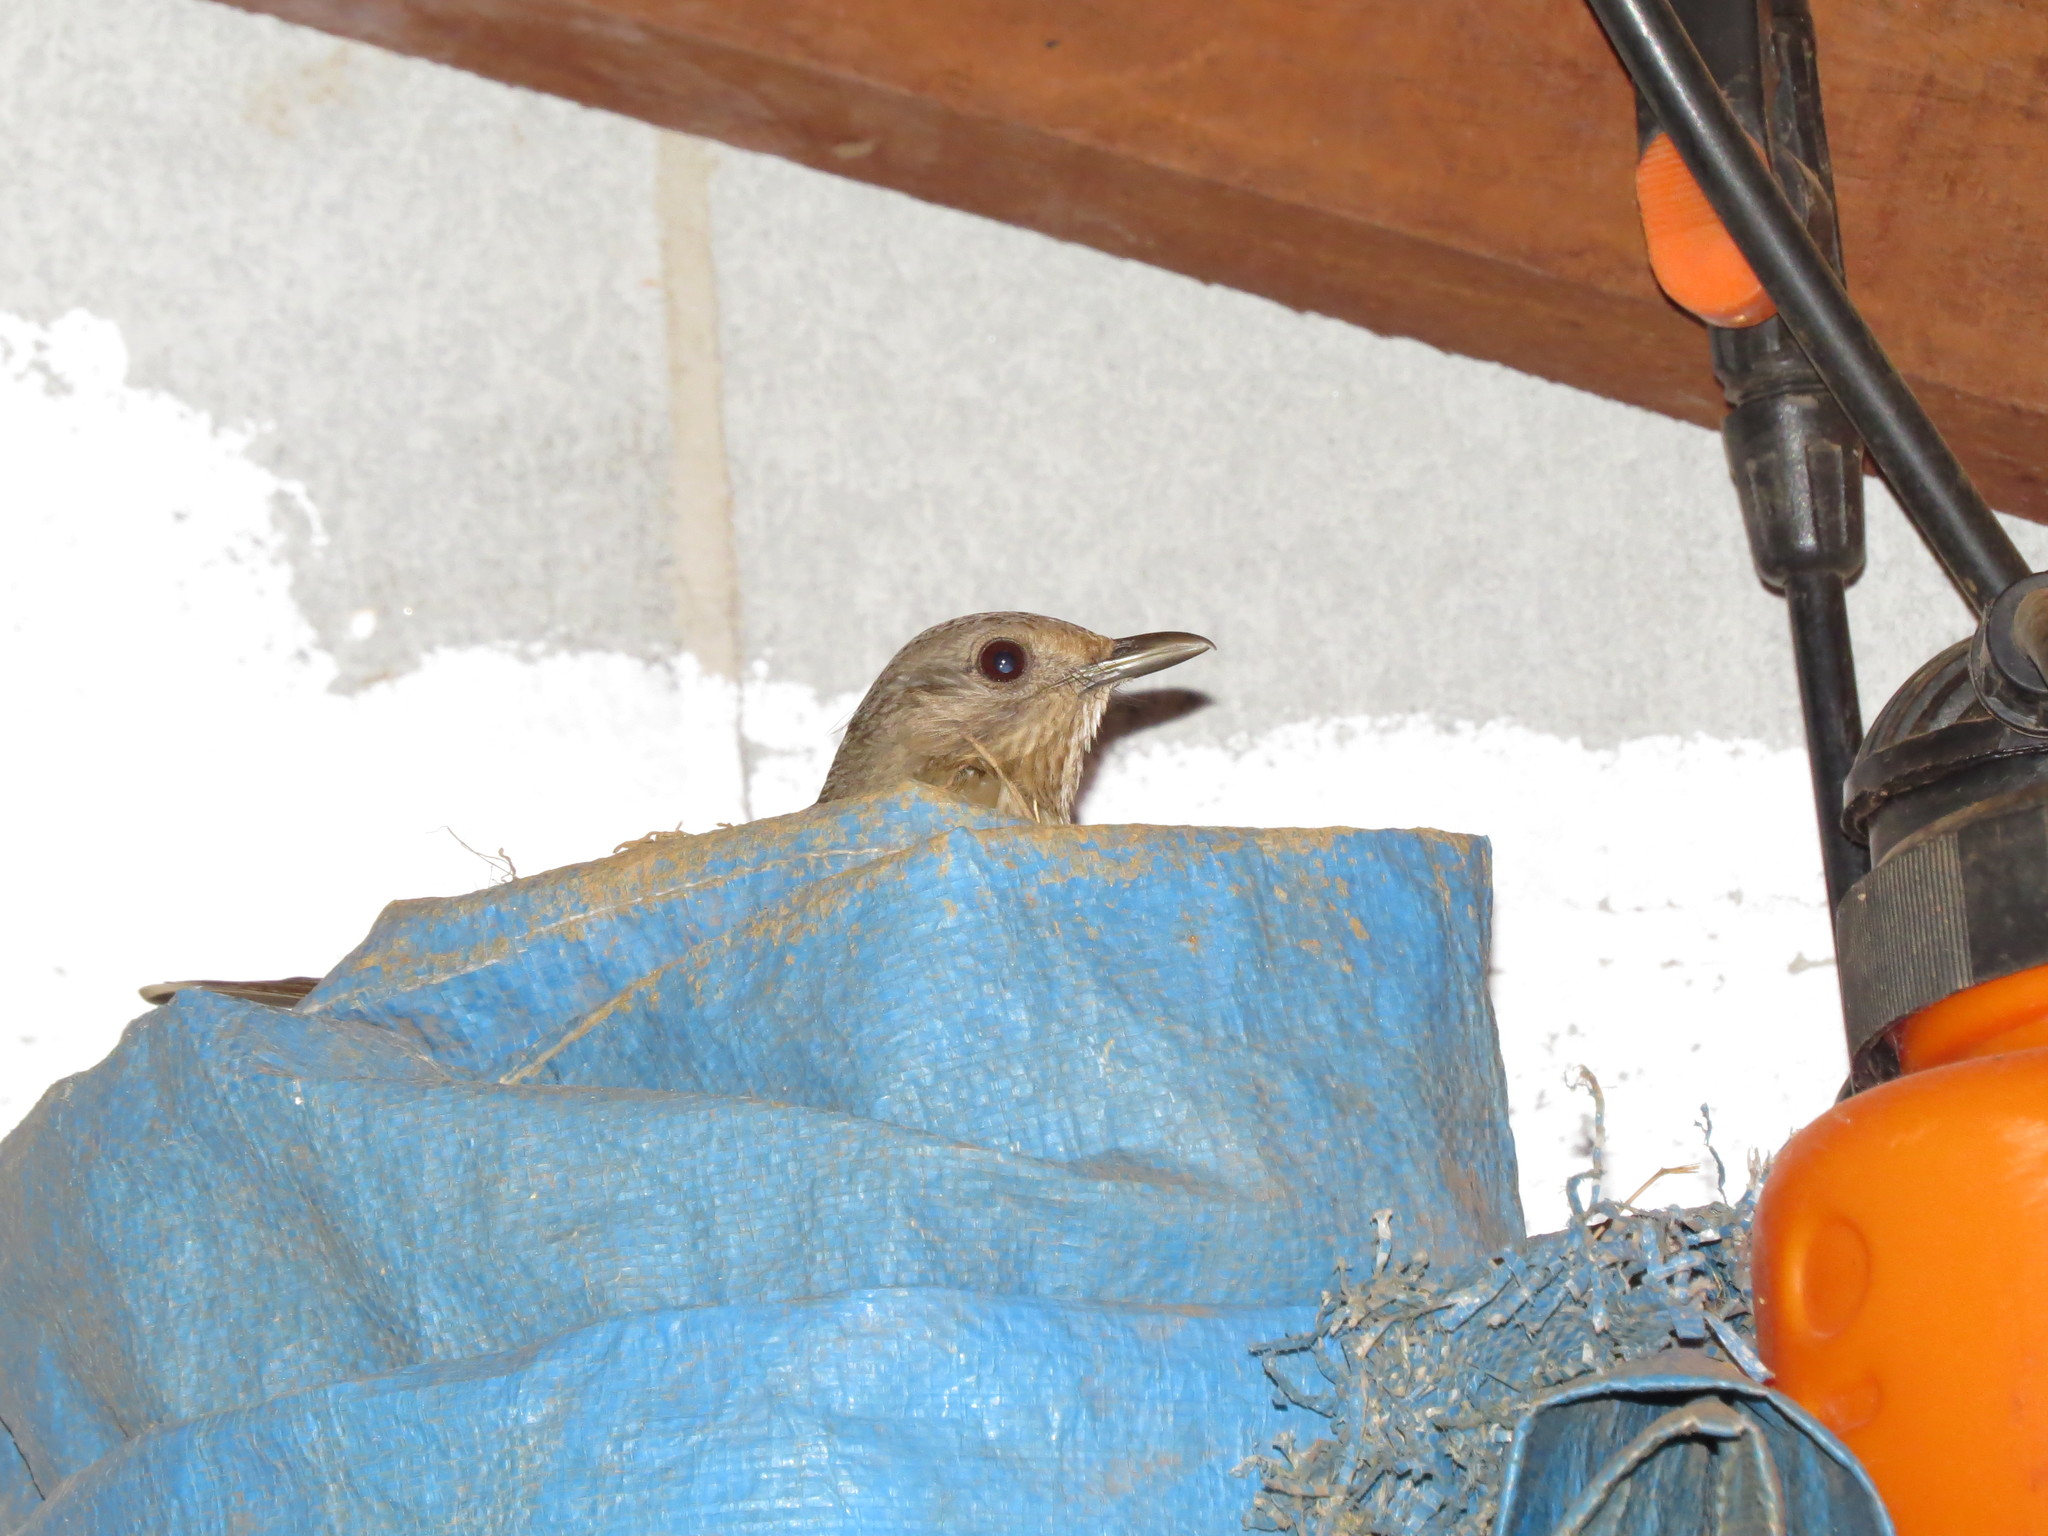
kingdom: Animalia
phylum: Chordata
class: Aves
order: Passeriformes
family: Turdidae
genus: Turdus
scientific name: Turdus leucomelas
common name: Pale-breasted thrush
